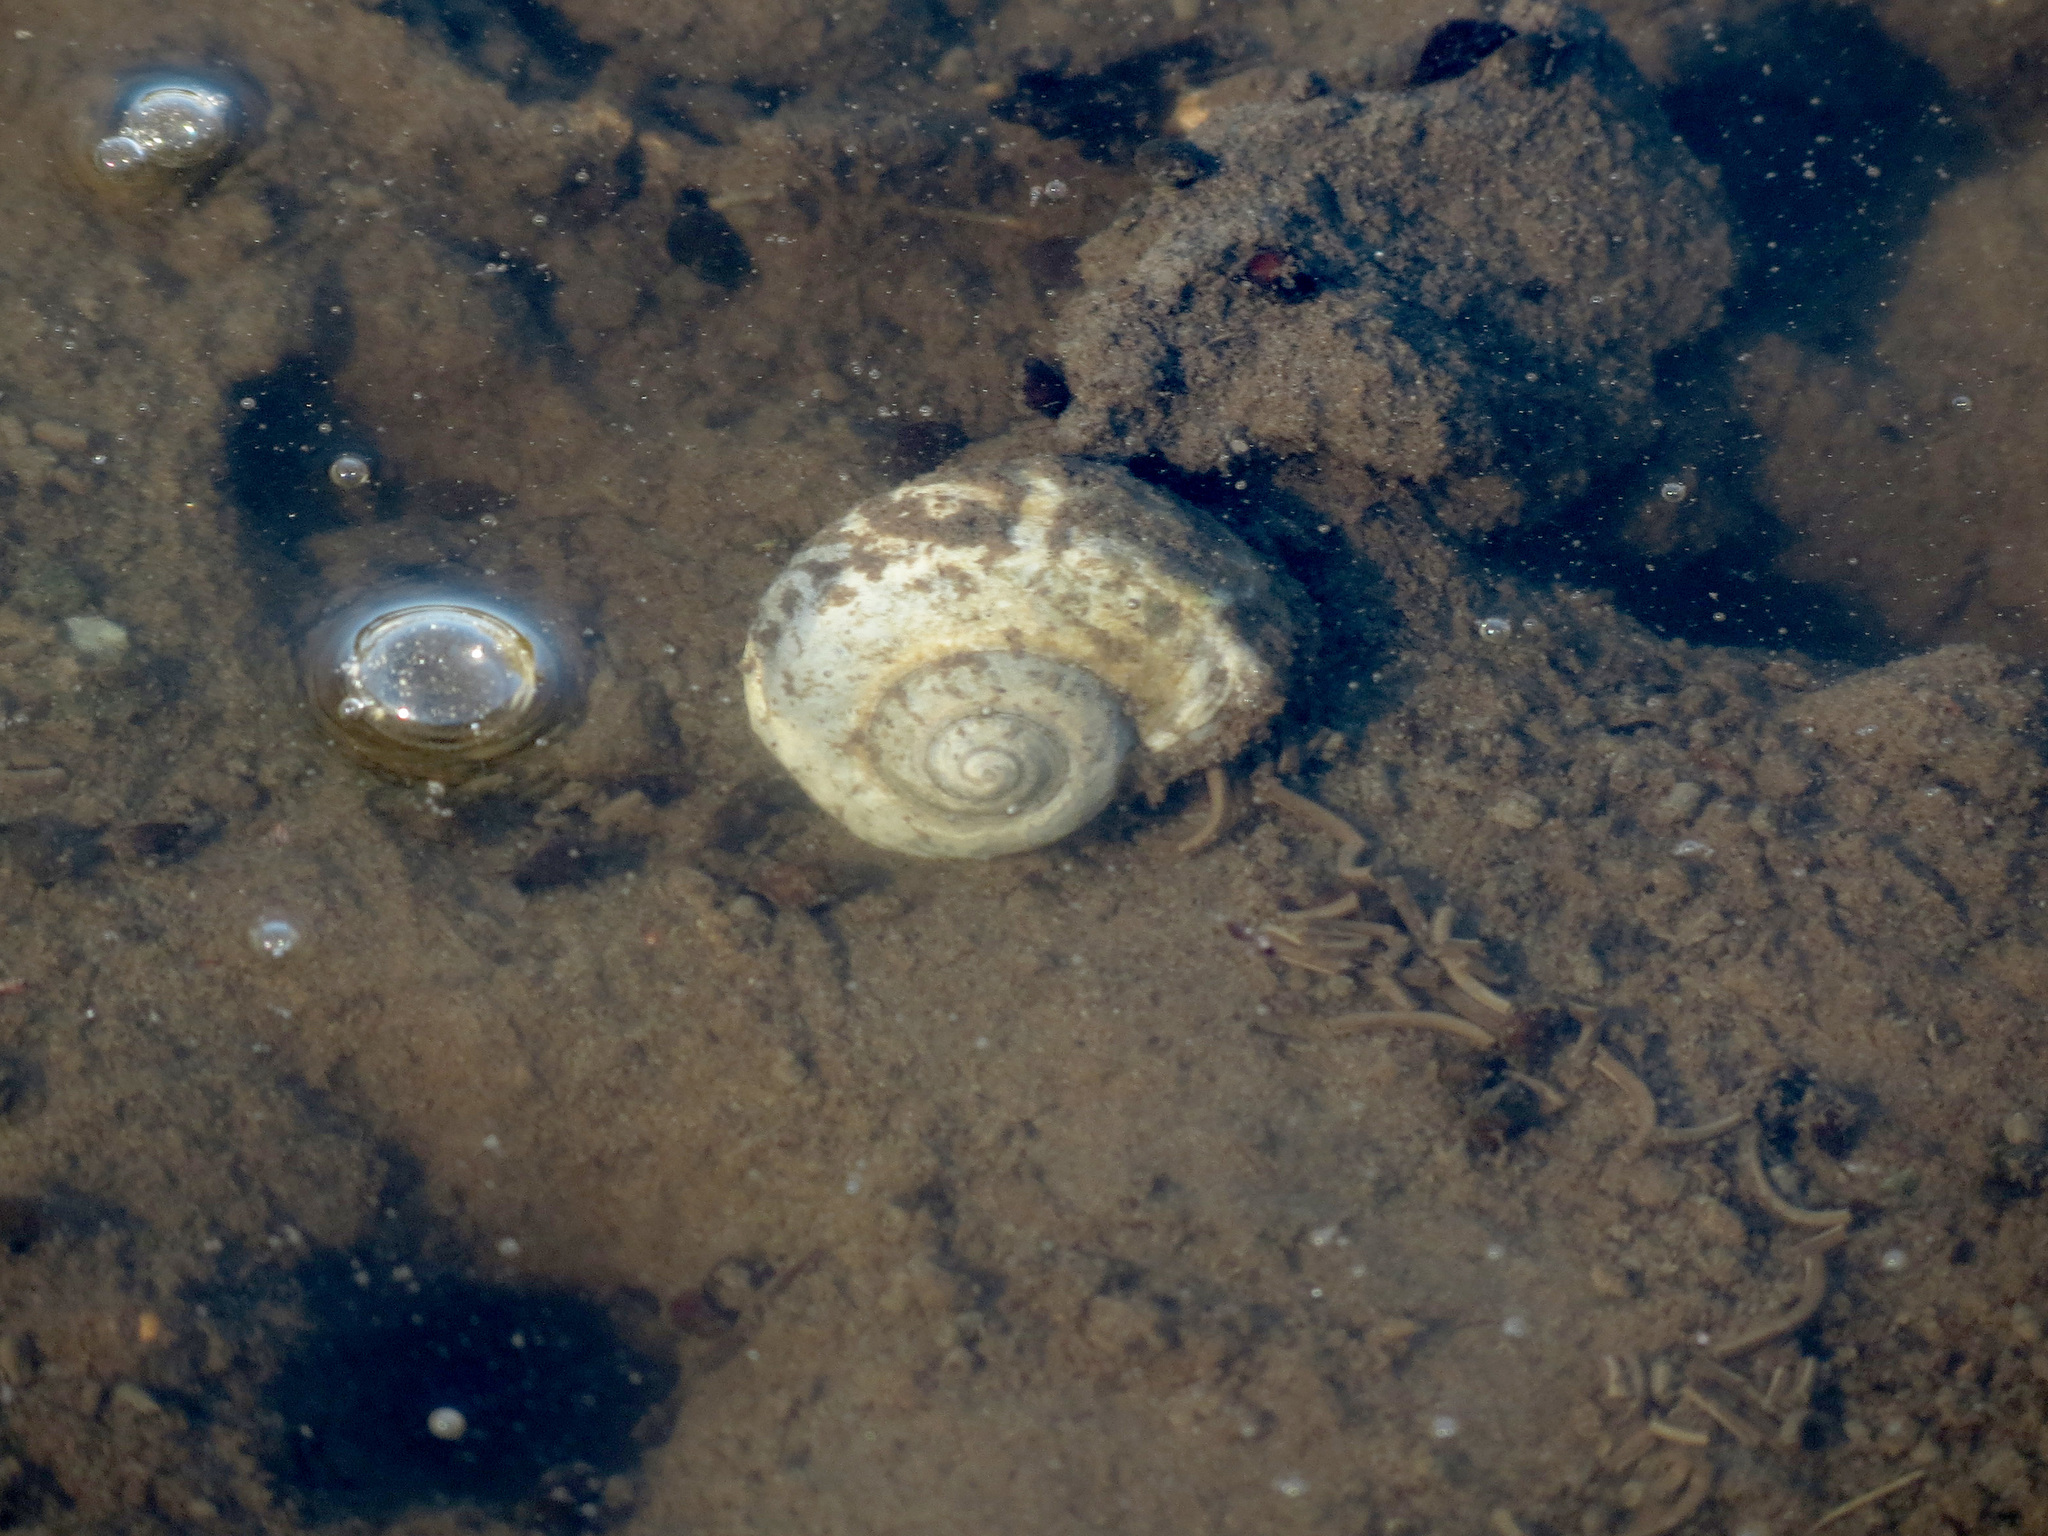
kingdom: Animalia
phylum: Mollusca
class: Gastropoda
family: Amphibolidae
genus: Amphibola
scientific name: Amphibola crenata
